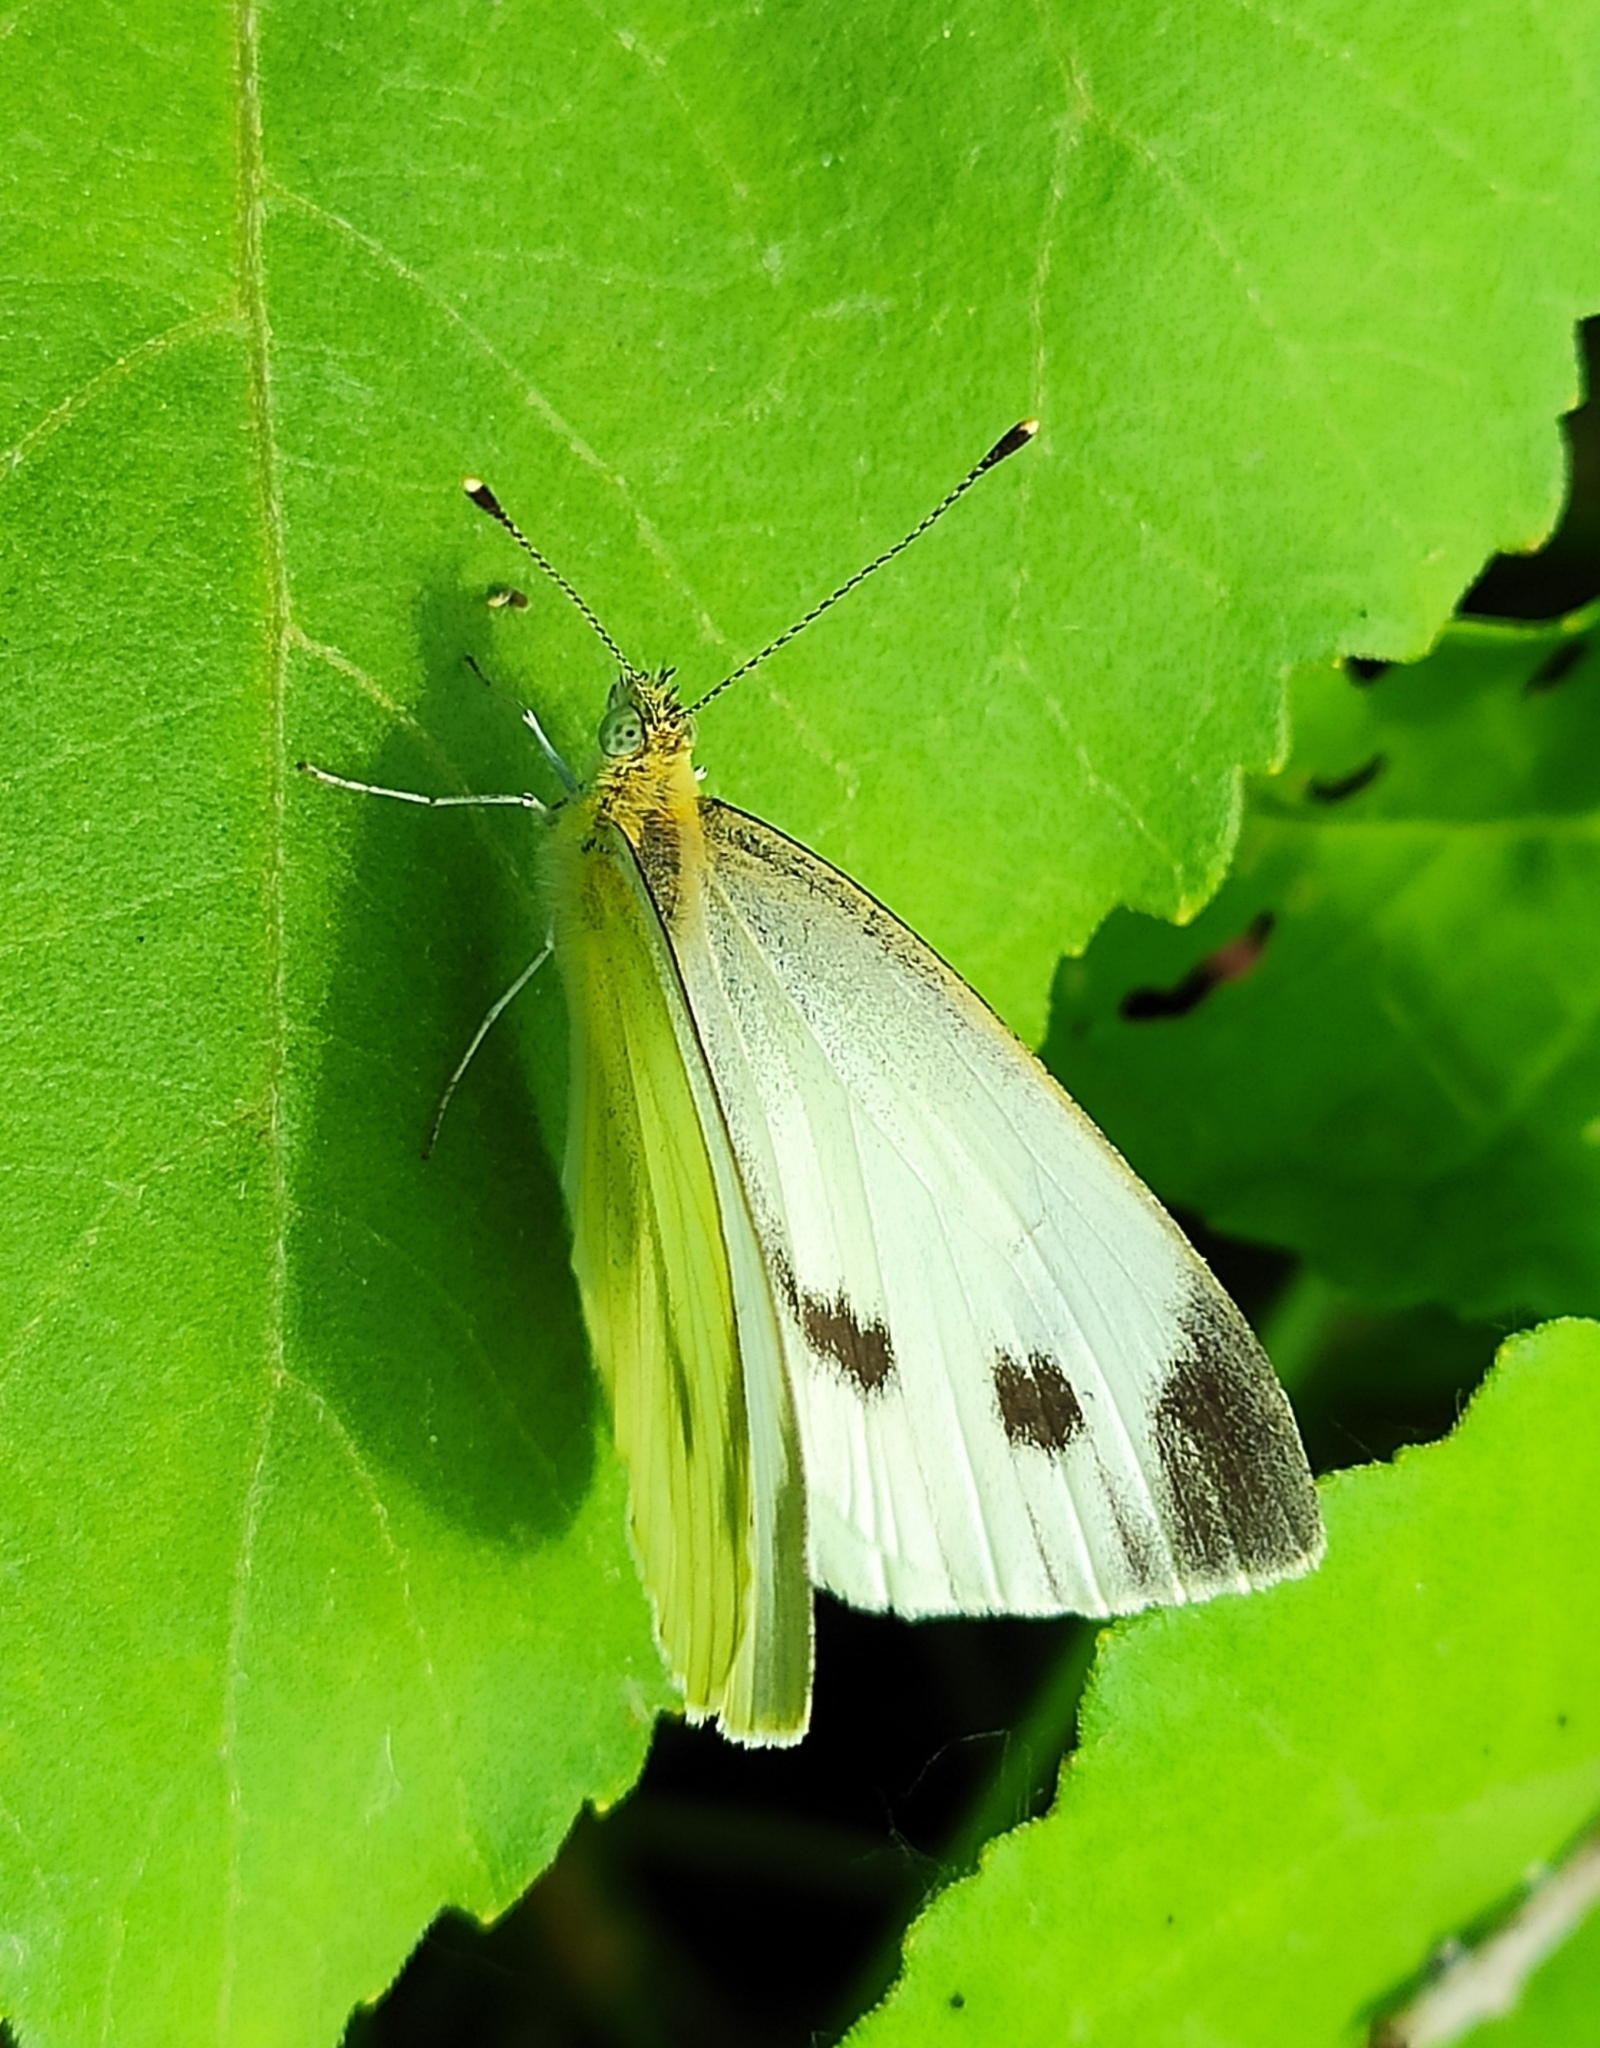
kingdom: Animalia
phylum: Arthropoda
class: Insecta
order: Lepidoptera
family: Pieridae
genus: Pieris
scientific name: Pieris rapae
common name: Small white
